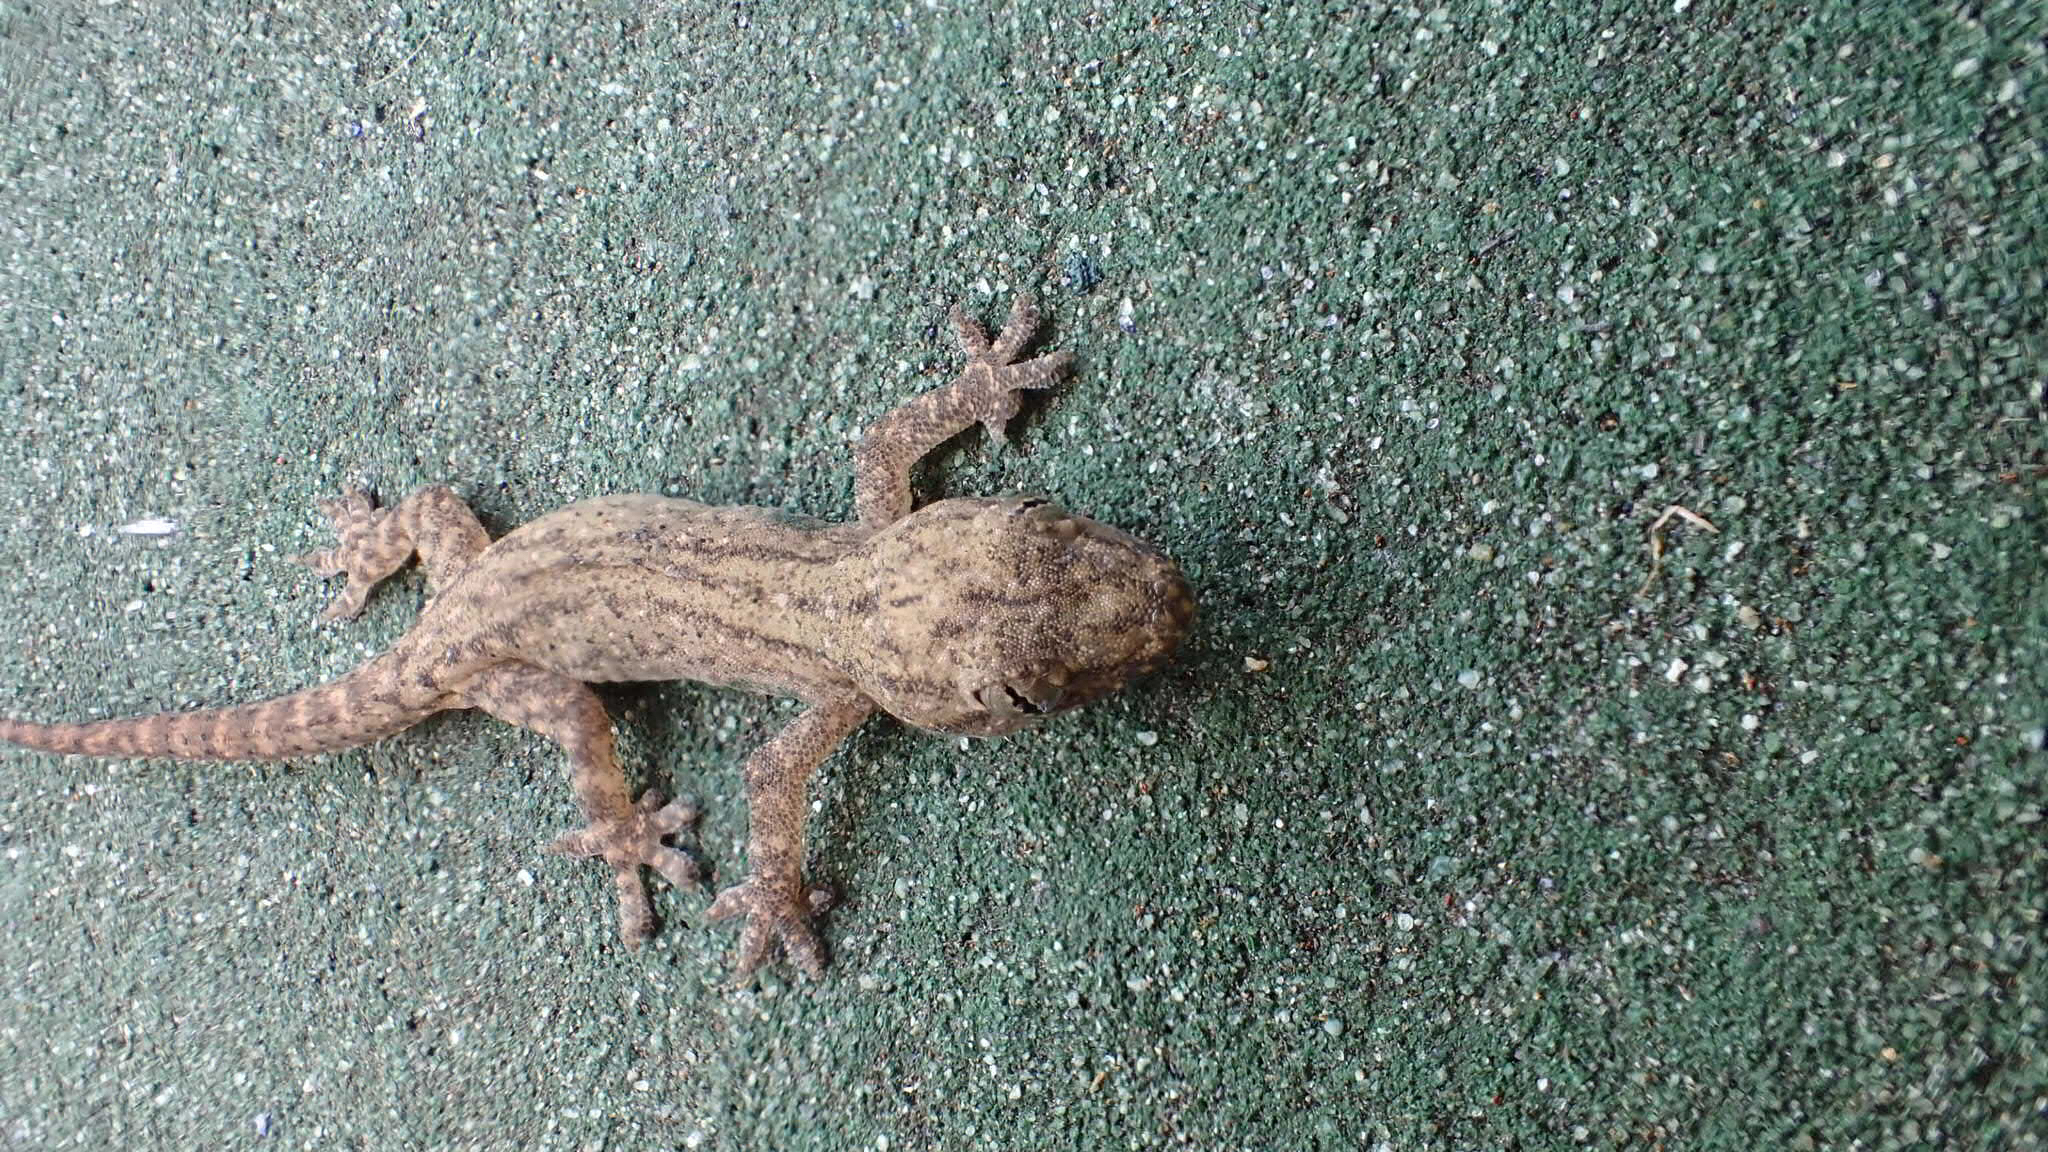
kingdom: Animalia
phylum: Chordata
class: Squamata
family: Gekkonidae
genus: Hemidactylus
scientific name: Hemidactylus frenatus
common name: Common house gecko
